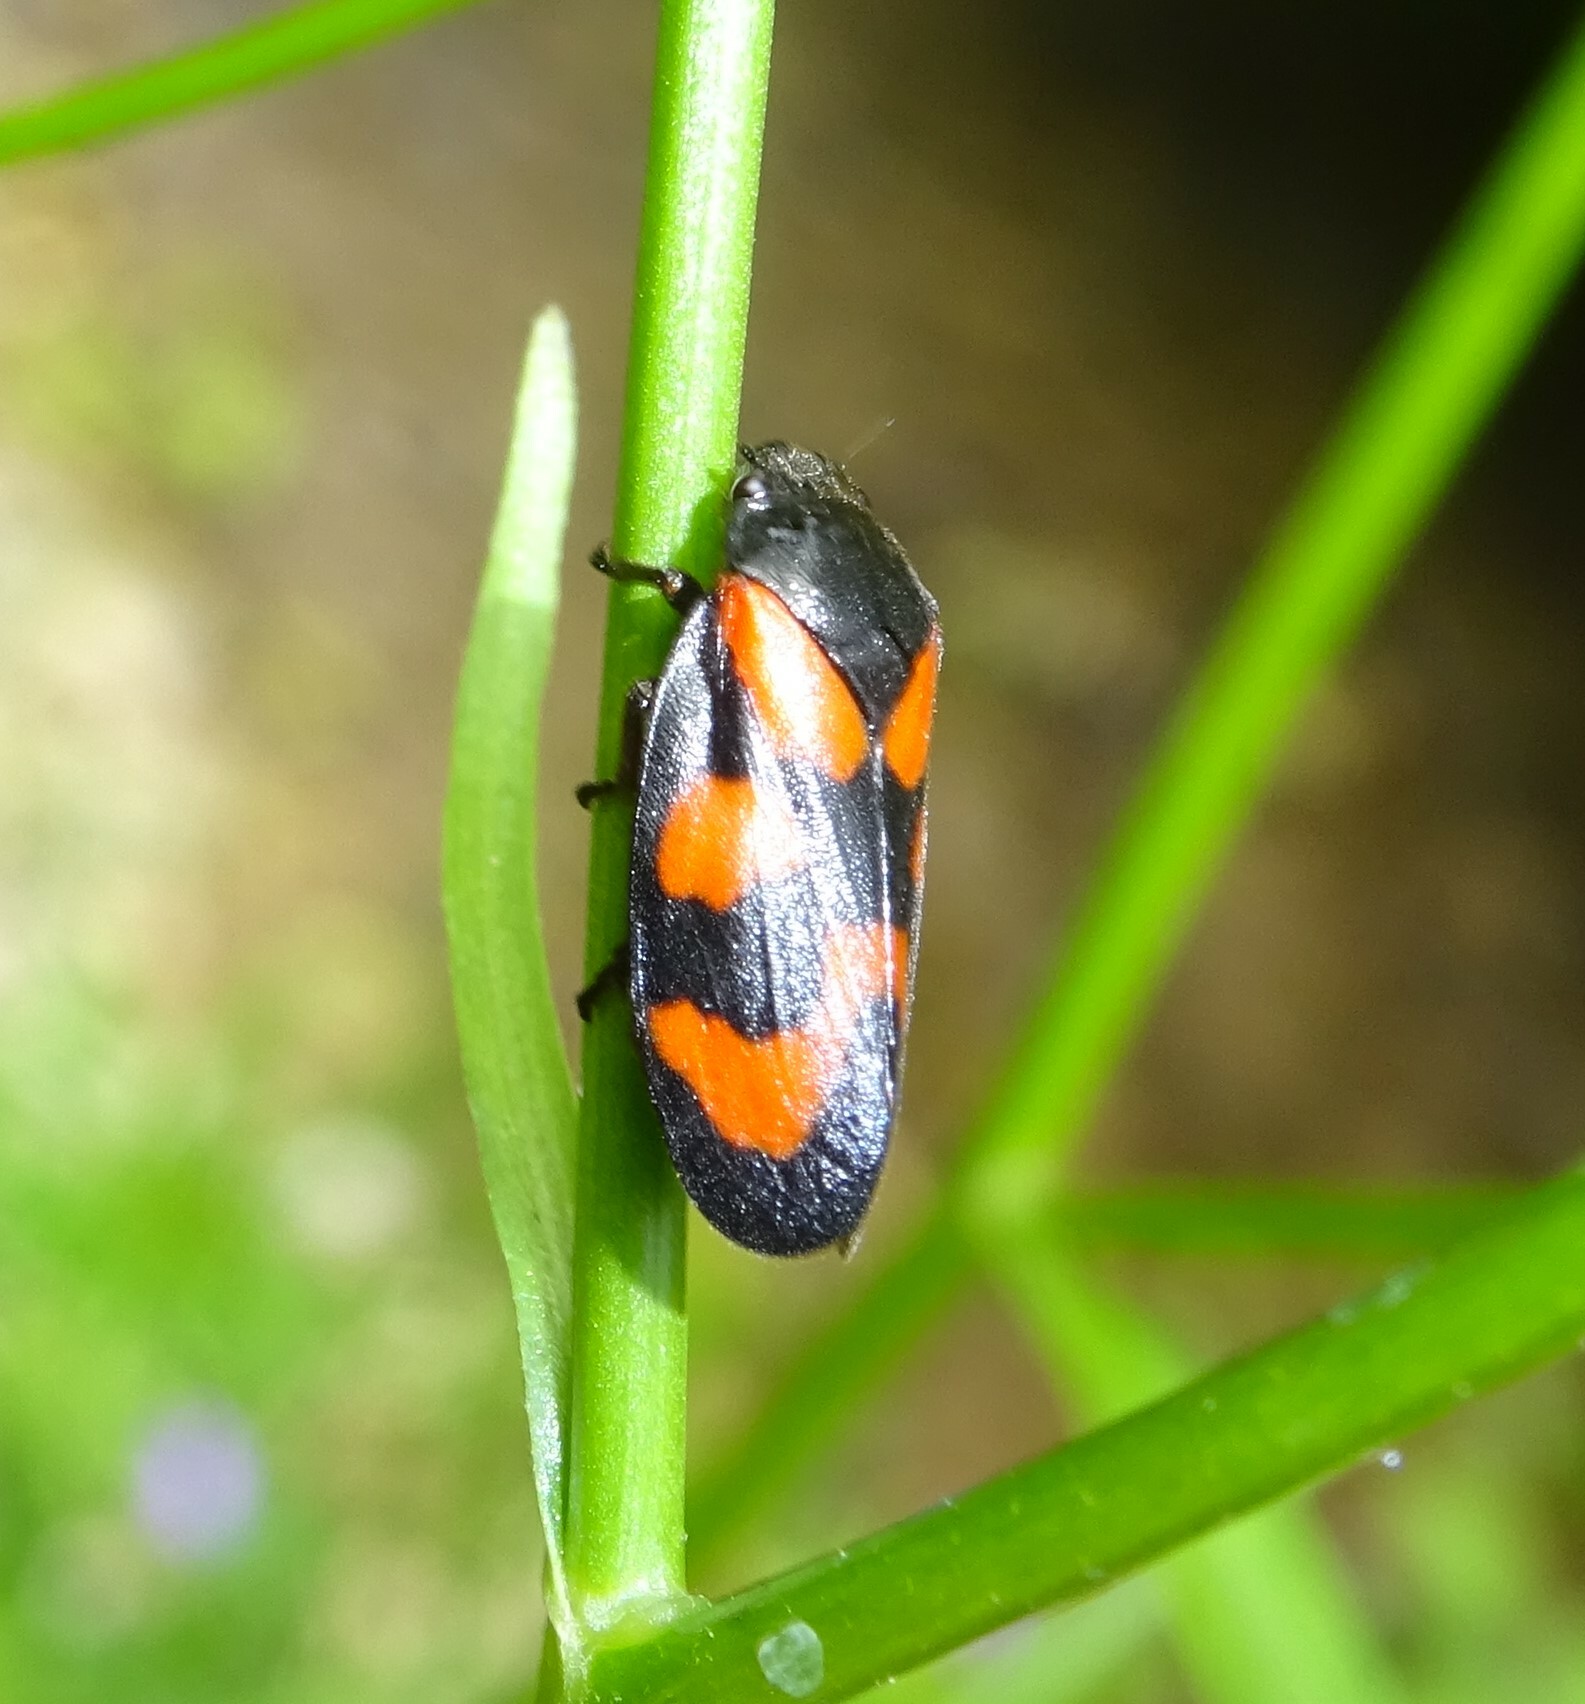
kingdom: Animalia
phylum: Arthropoda
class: Insecta
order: Hemiptera
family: Cercopidae
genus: Cercopis
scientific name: Cercopis vulnerata
